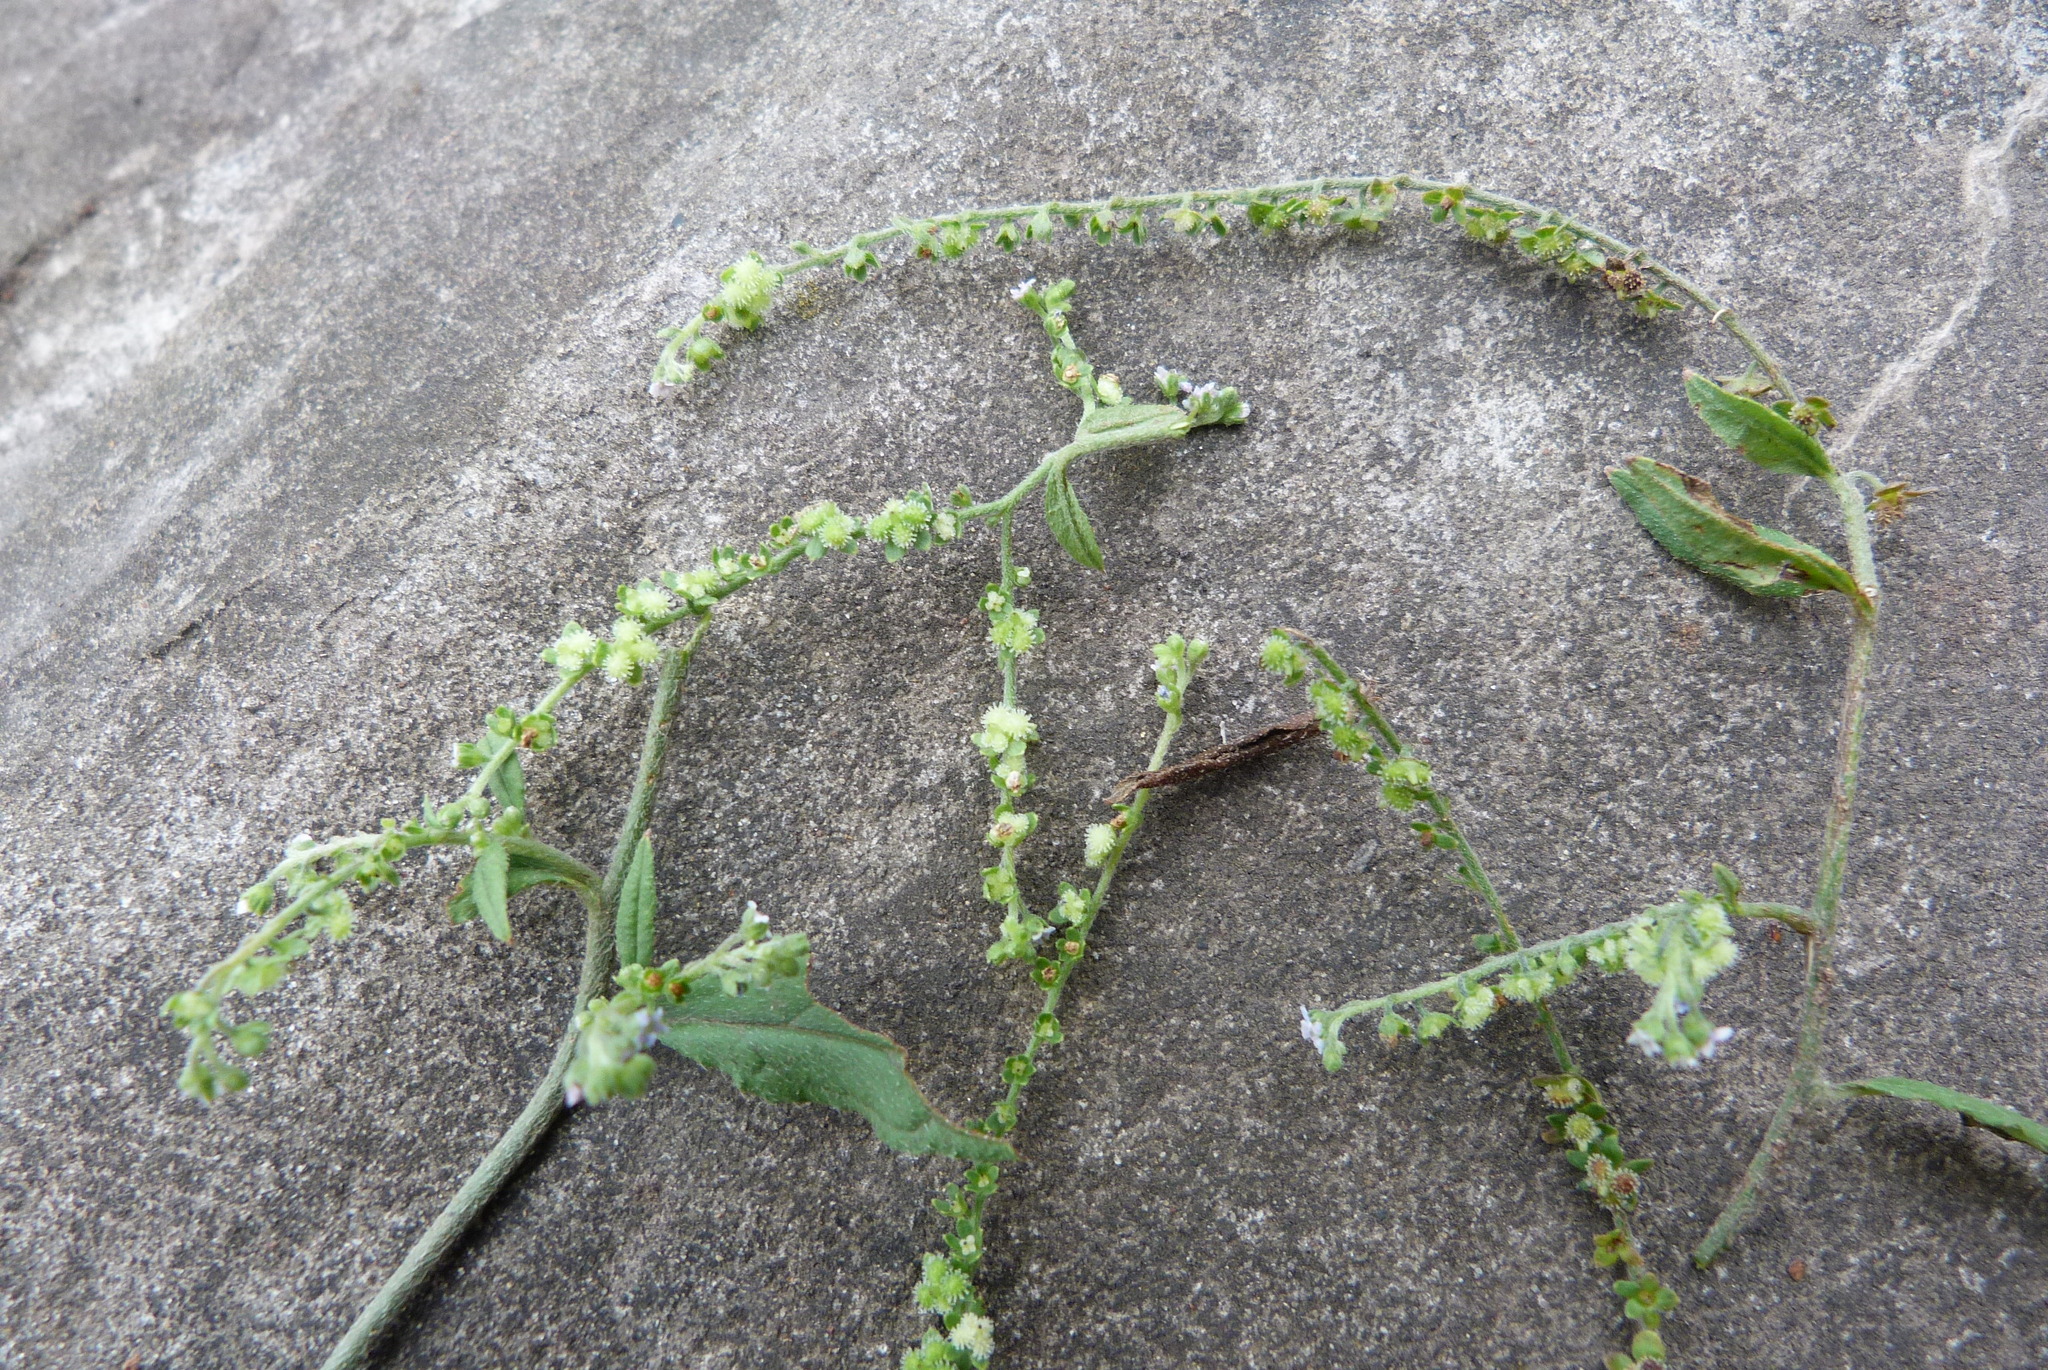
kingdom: Plantae
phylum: Tracheophyta
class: Magnoliopsida
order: Boraginales
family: Boraginaceae
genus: Cynoglossum
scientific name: Cynoglossum zeylanicum
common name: Ceylon hound's tongue
